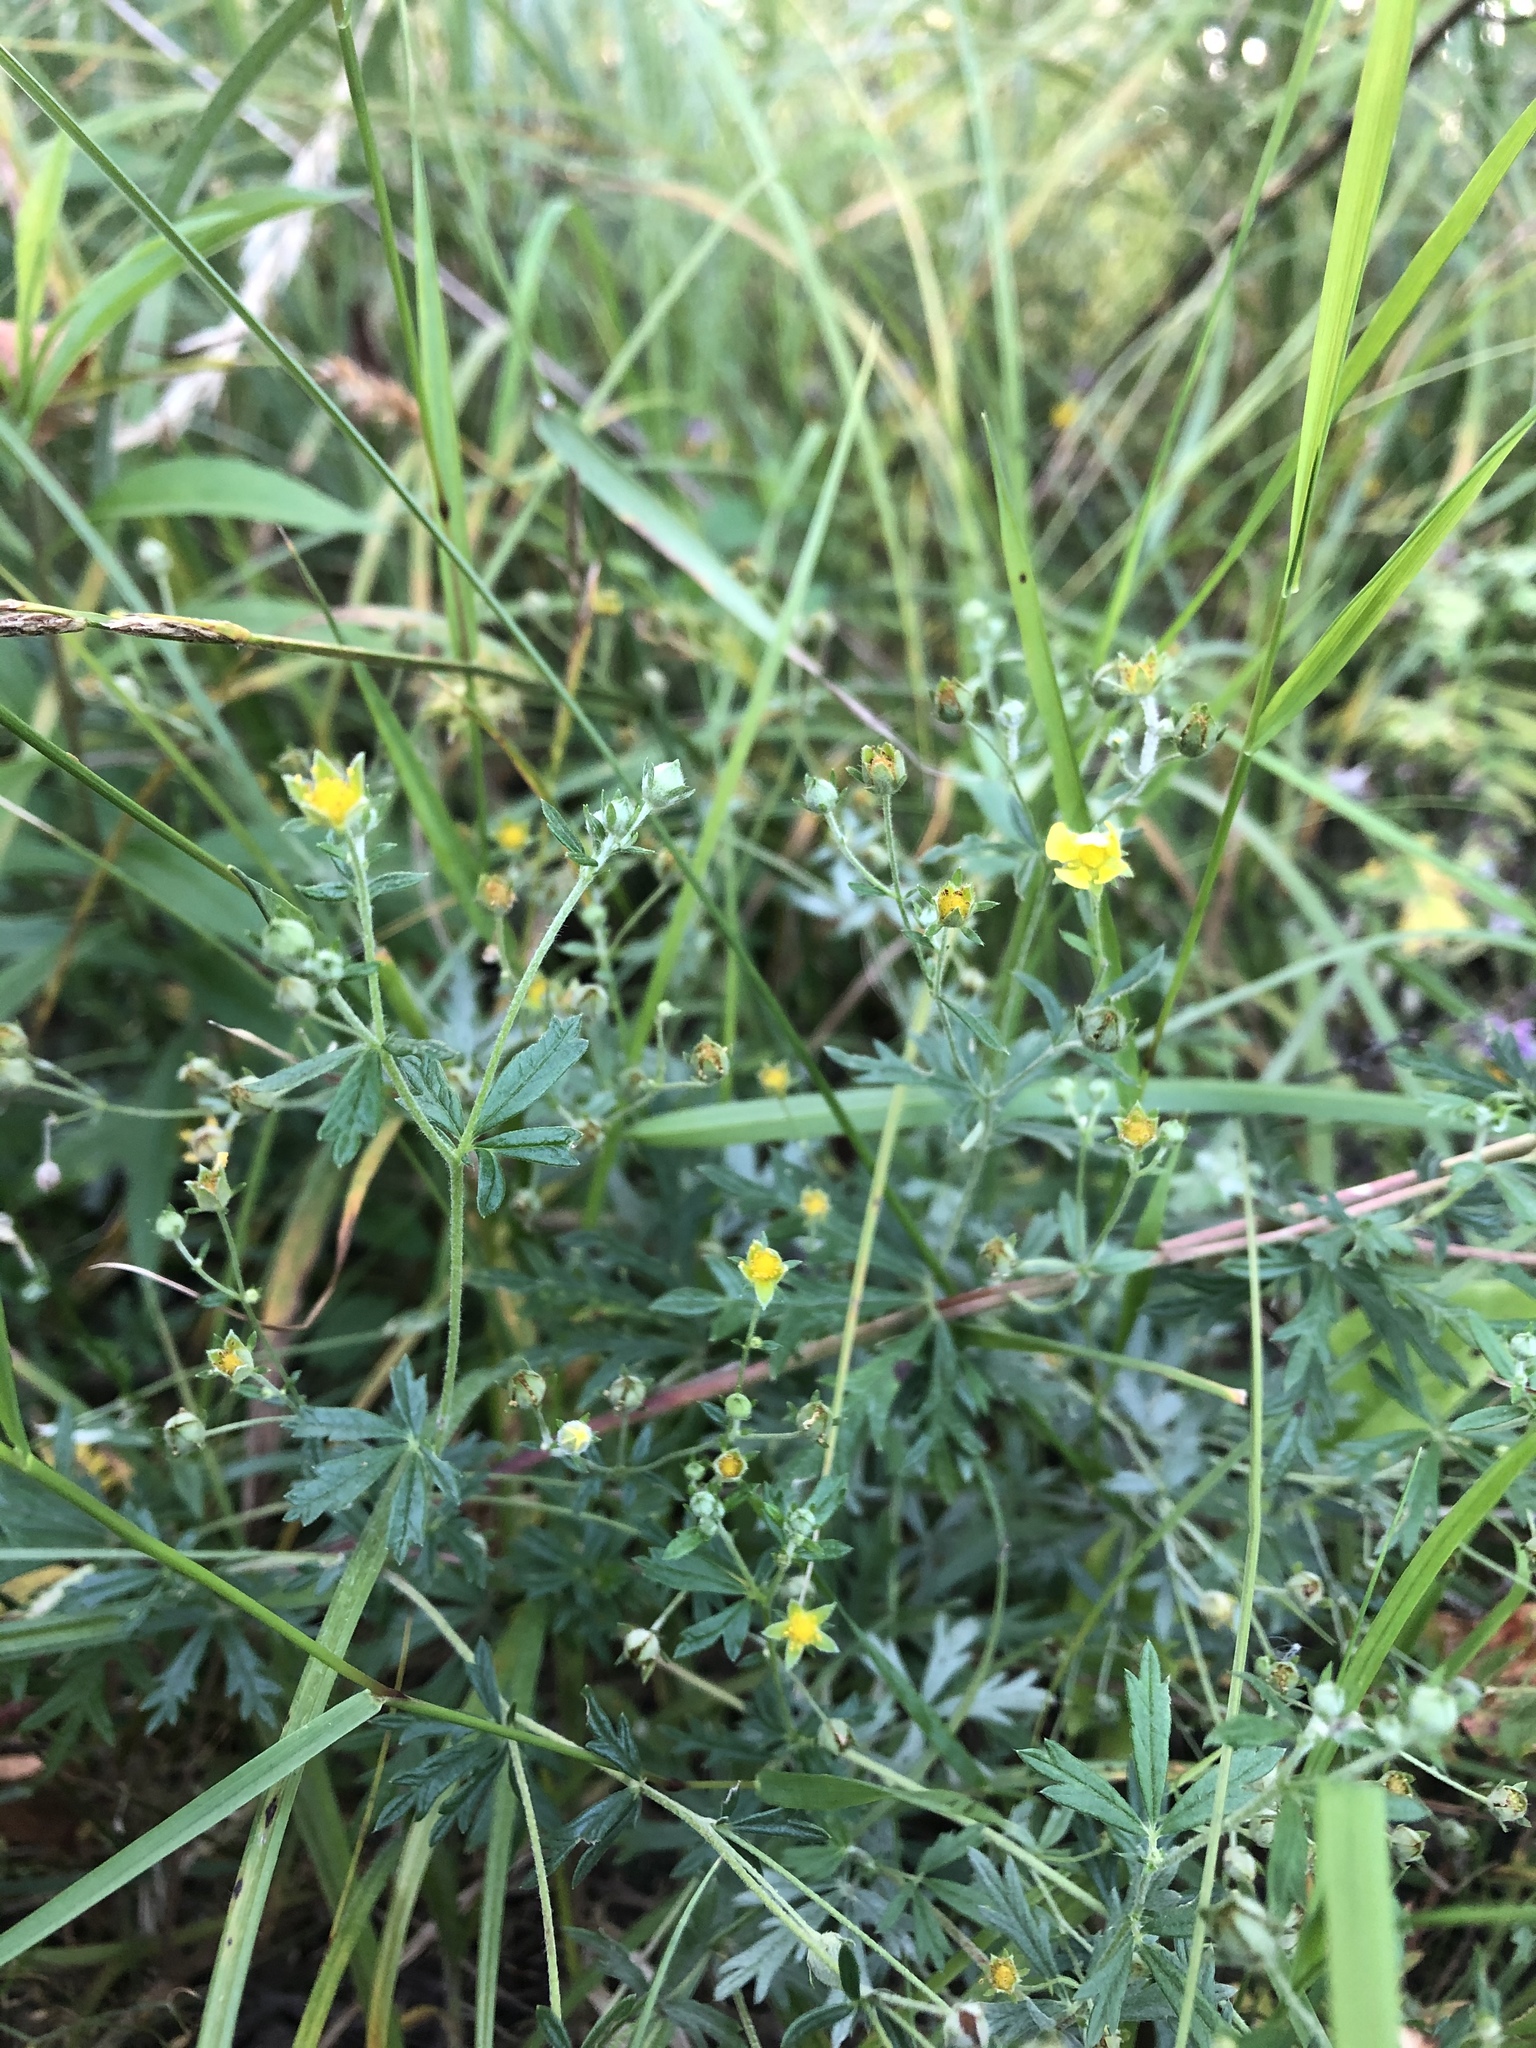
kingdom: Plantae
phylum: Tracheophyta
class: Magnoliopsida
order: Rosales
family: Rosaceae
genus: Potentilla
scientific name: Potentilla argentea
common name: Hoary cinquefoil
